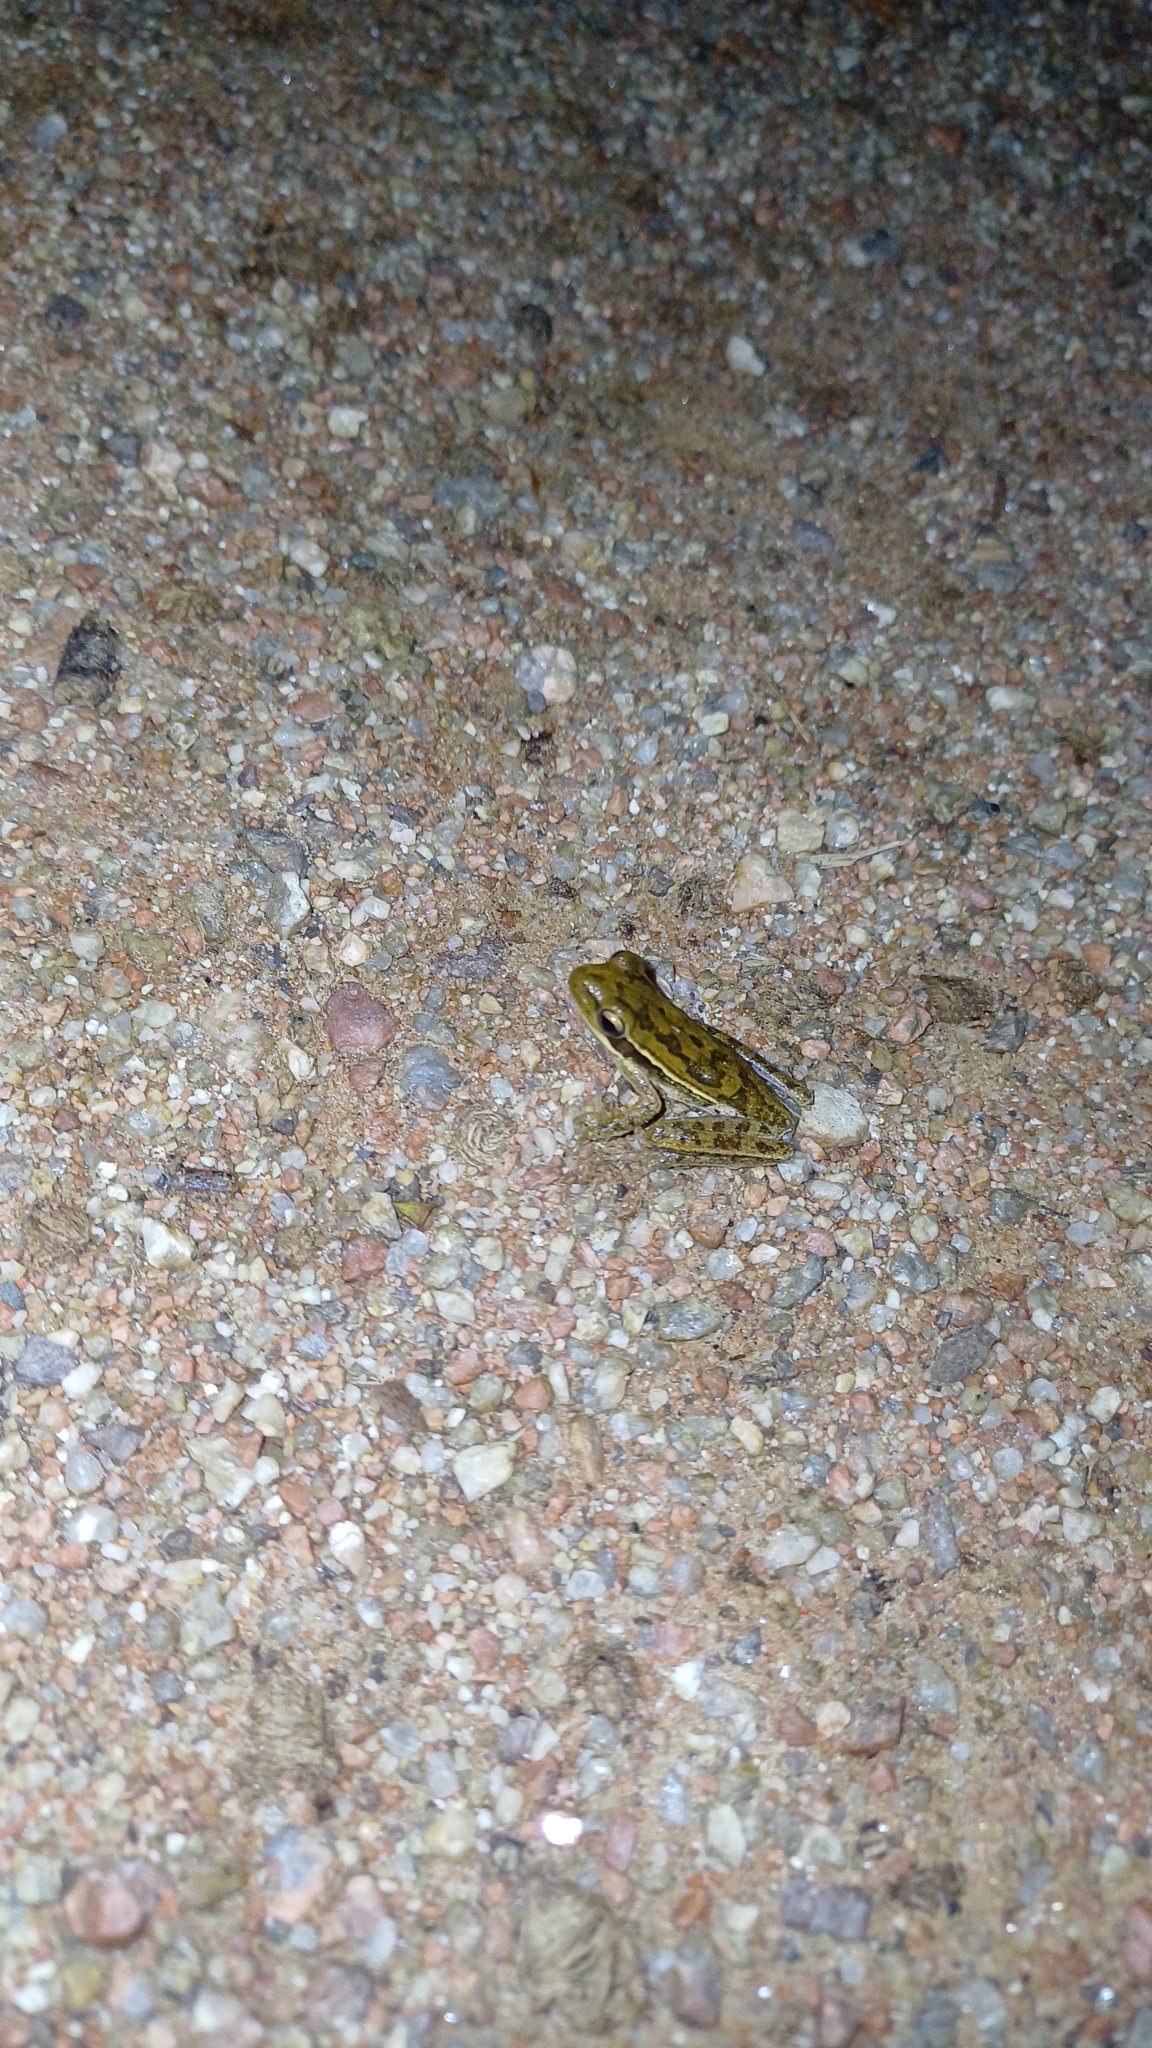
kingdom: Animalia
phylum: Chordata
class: Amphibia
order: Anura
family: Hylidae
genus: Boana
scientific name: Boana pulchella
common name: Montevideo treefrog
